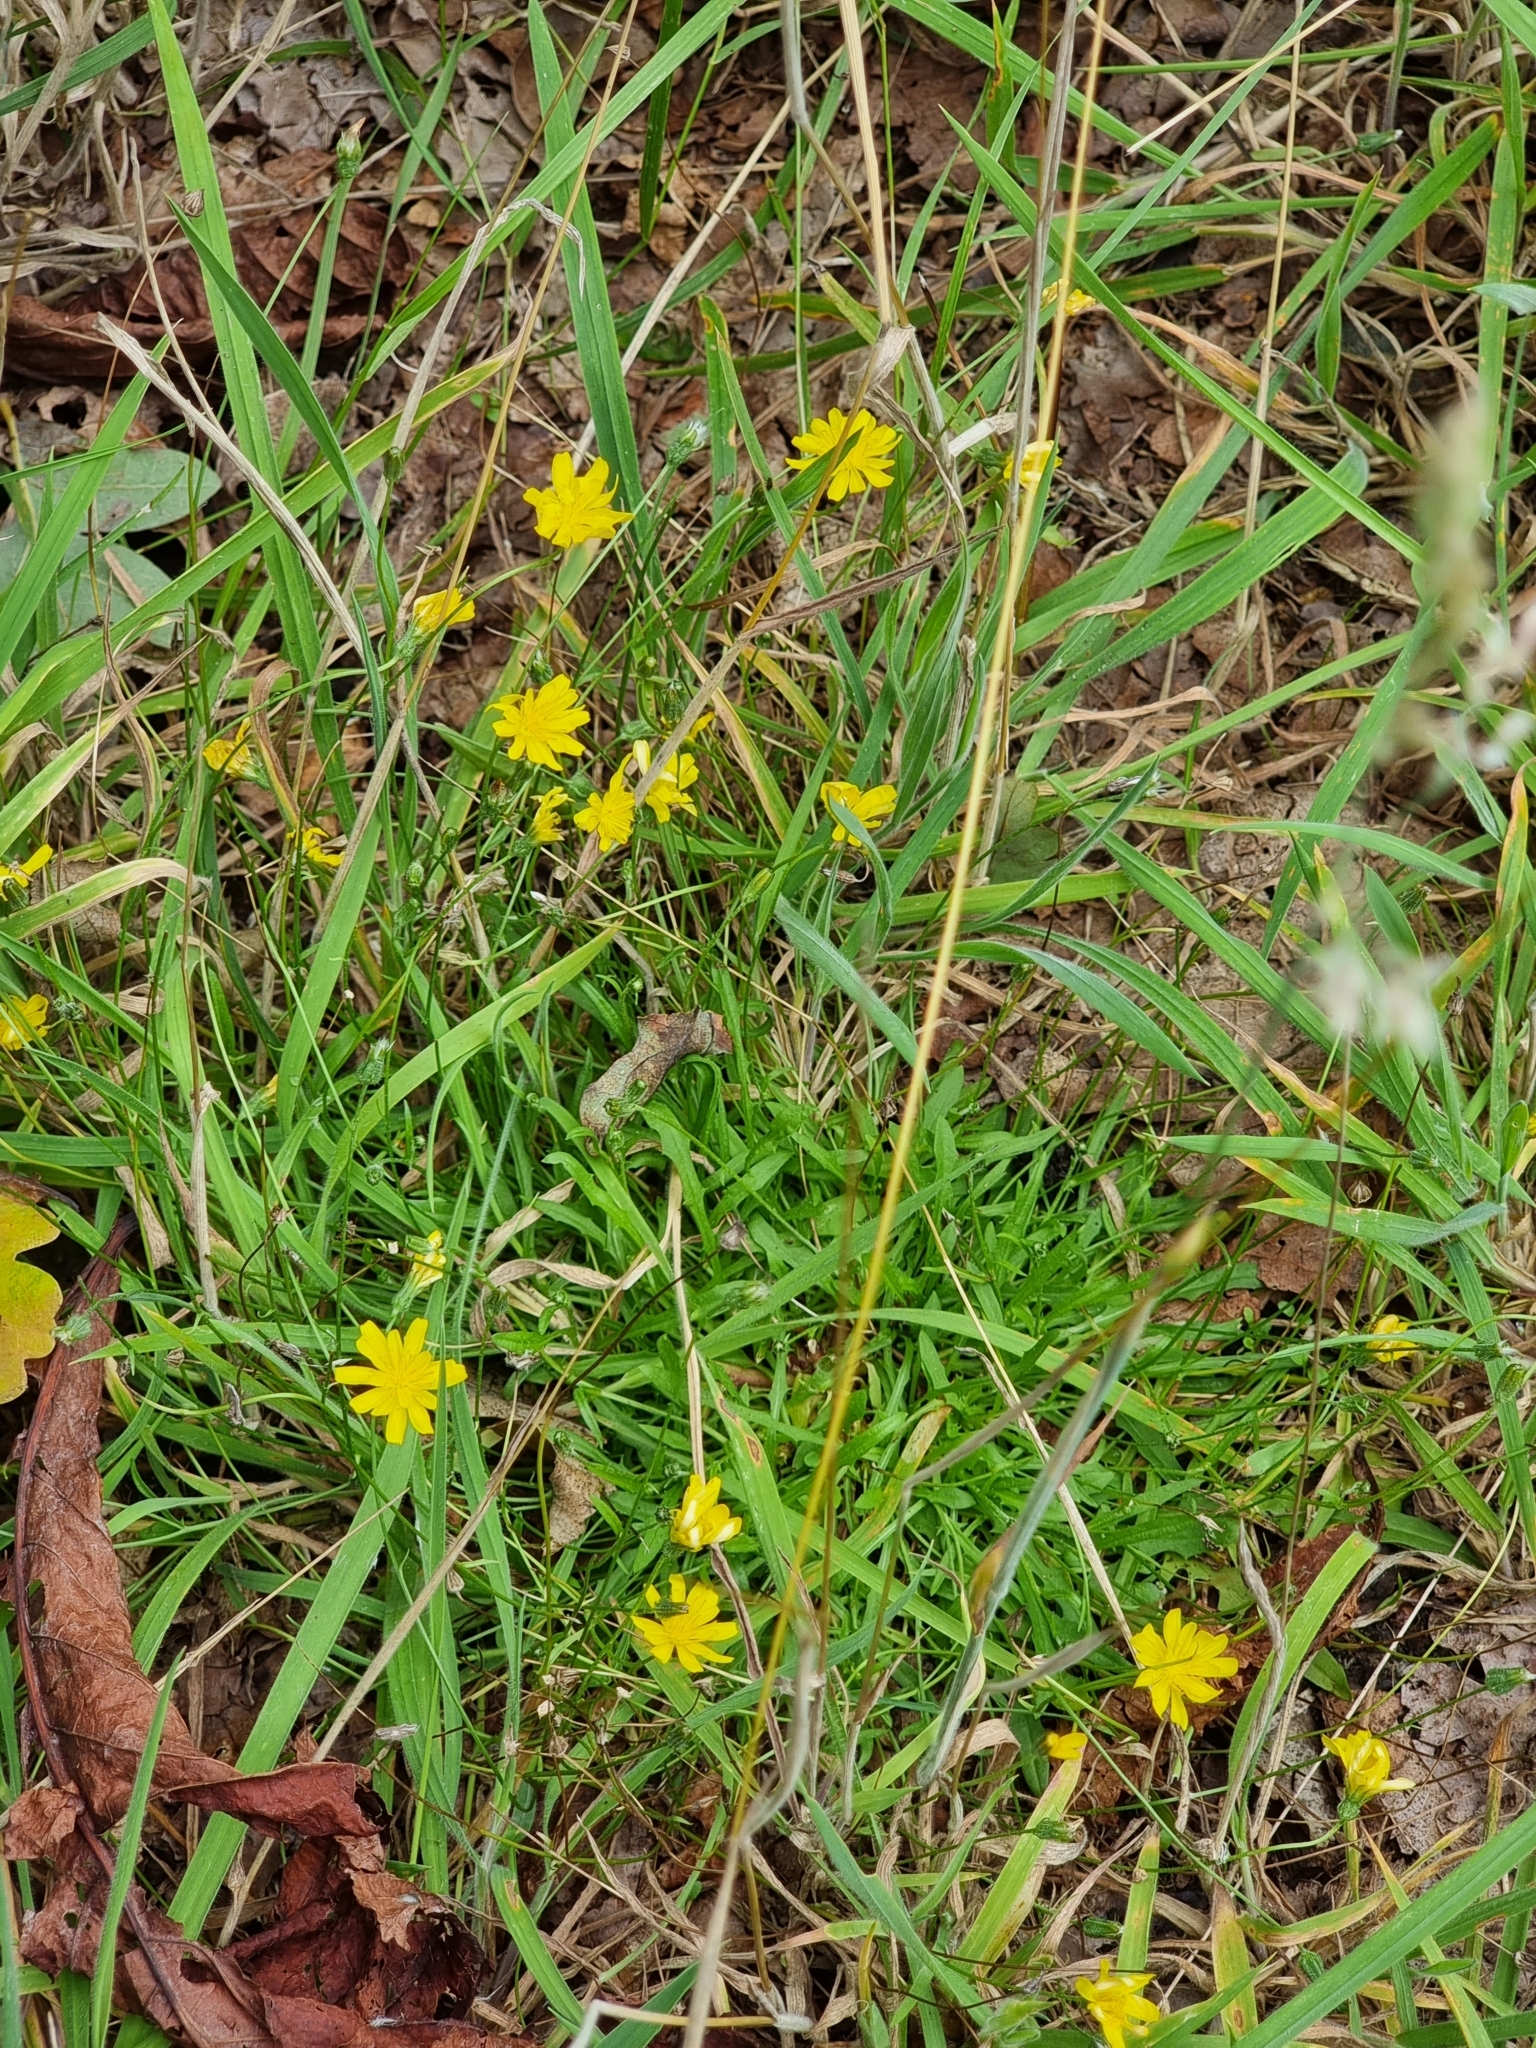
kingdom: Plantae
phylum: Tracheophyta
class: Magnoliopsida
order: Asterales
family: Asteraceae
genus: Crepis
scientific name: Crepis capillaris
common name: Smooth hawksbeard
